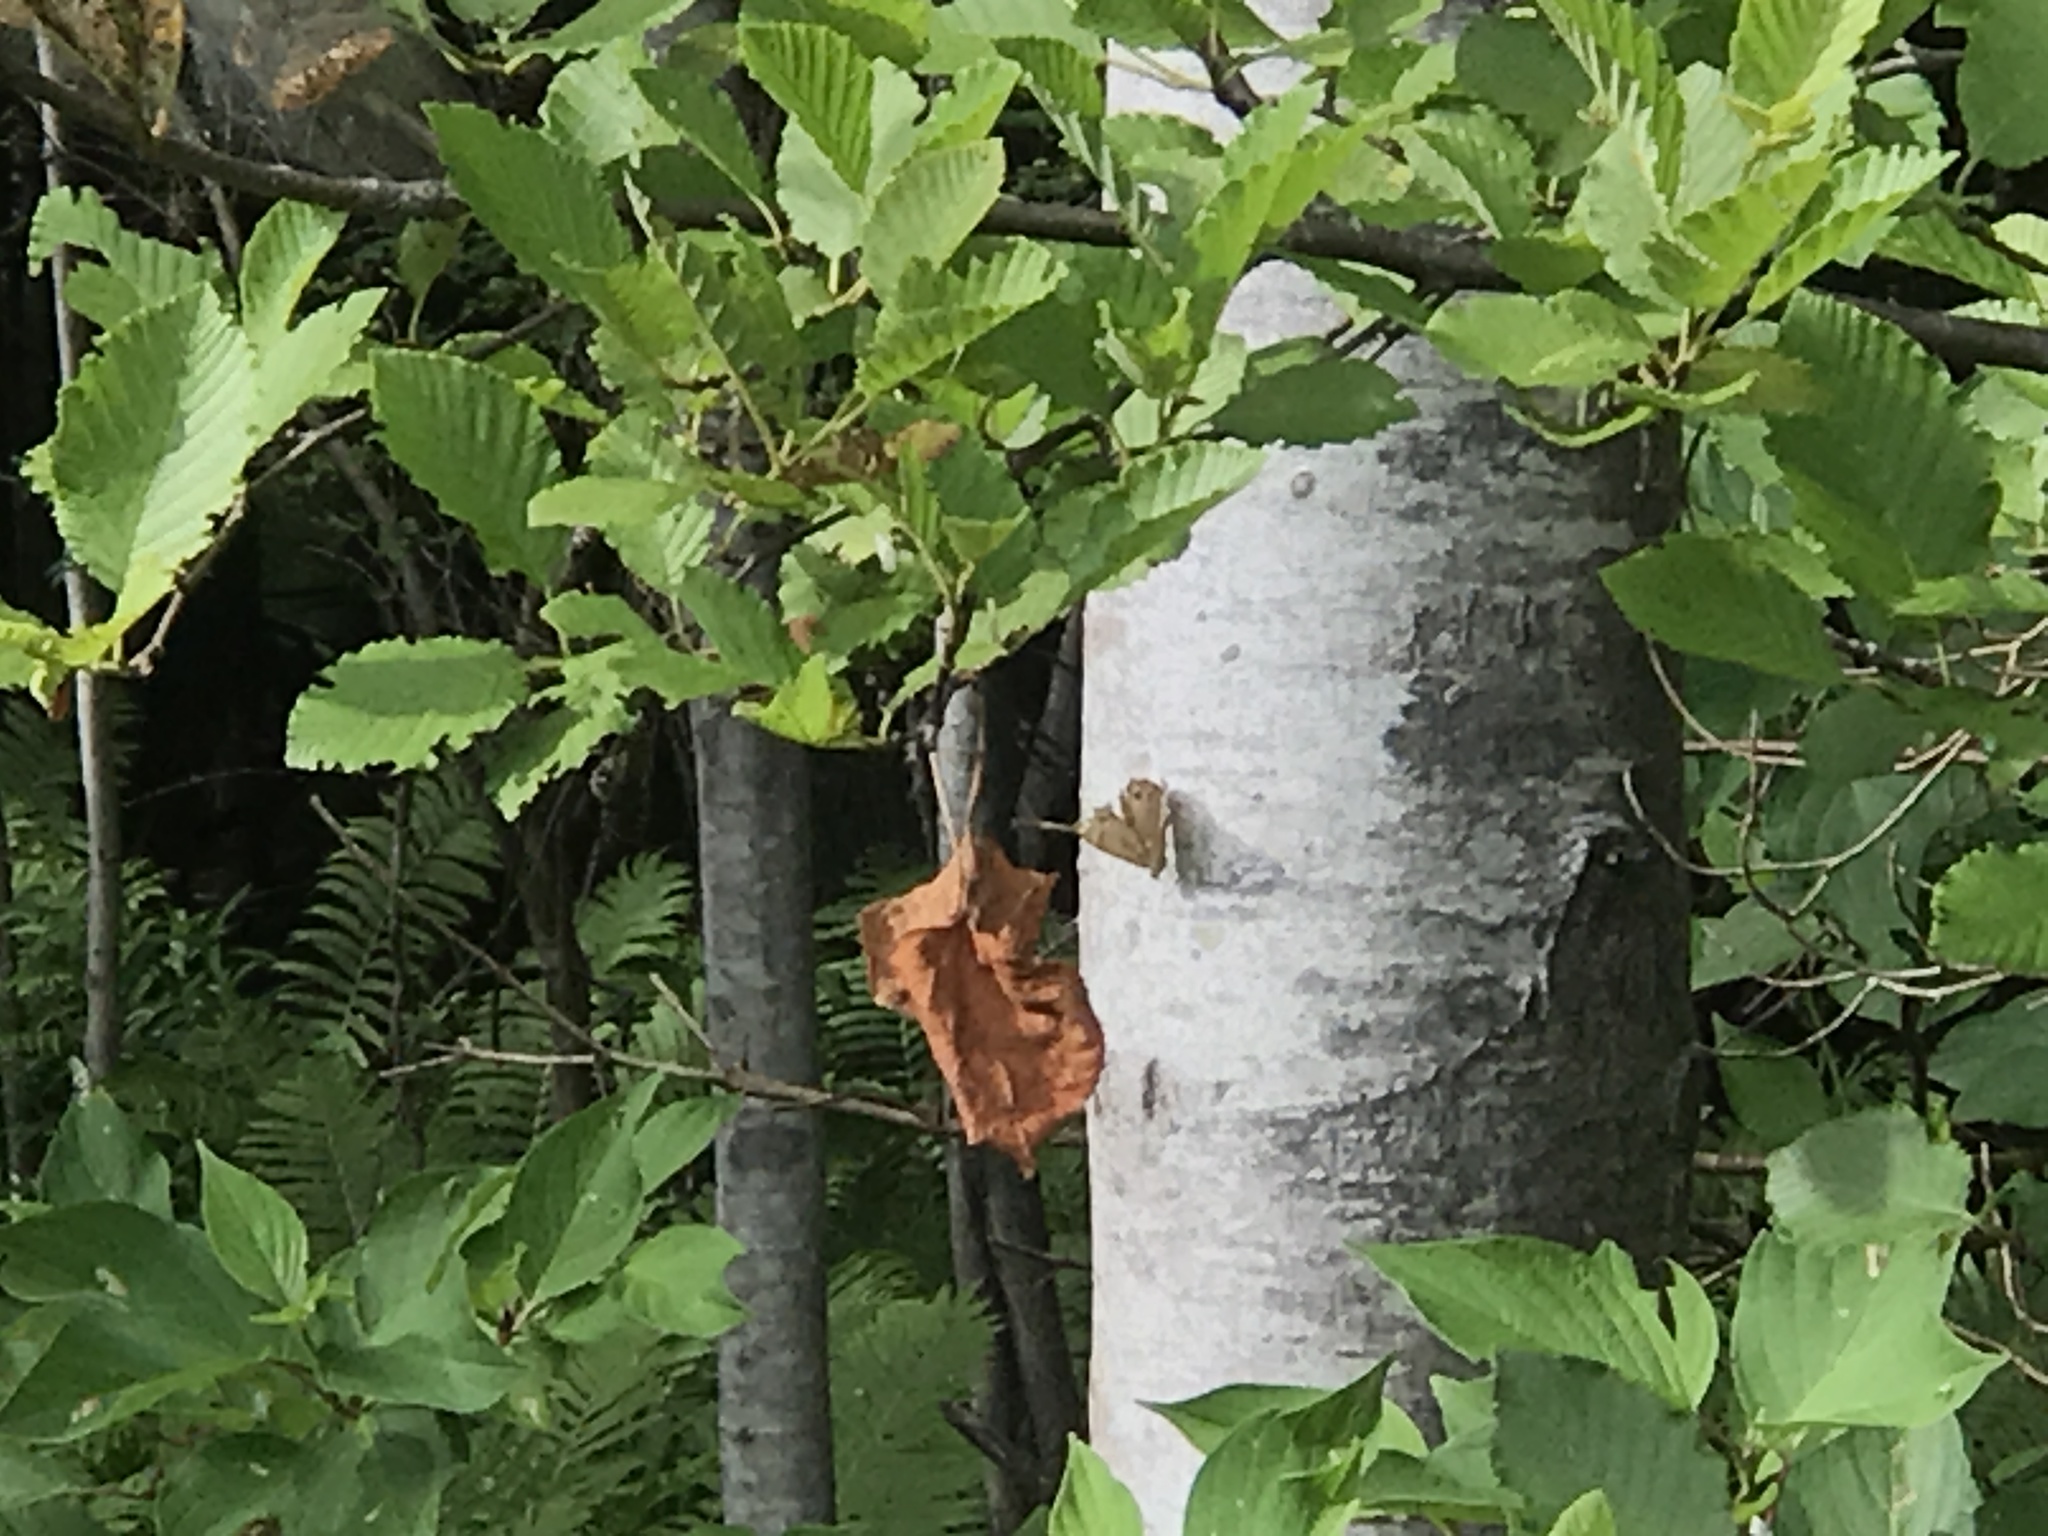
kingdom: Animalia
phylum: Arthropoda
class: Insecta
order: Lepidoptera
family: Nymphalidae
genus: Lethe
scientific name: Lethe anthedon
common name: Northern pearly-eye
